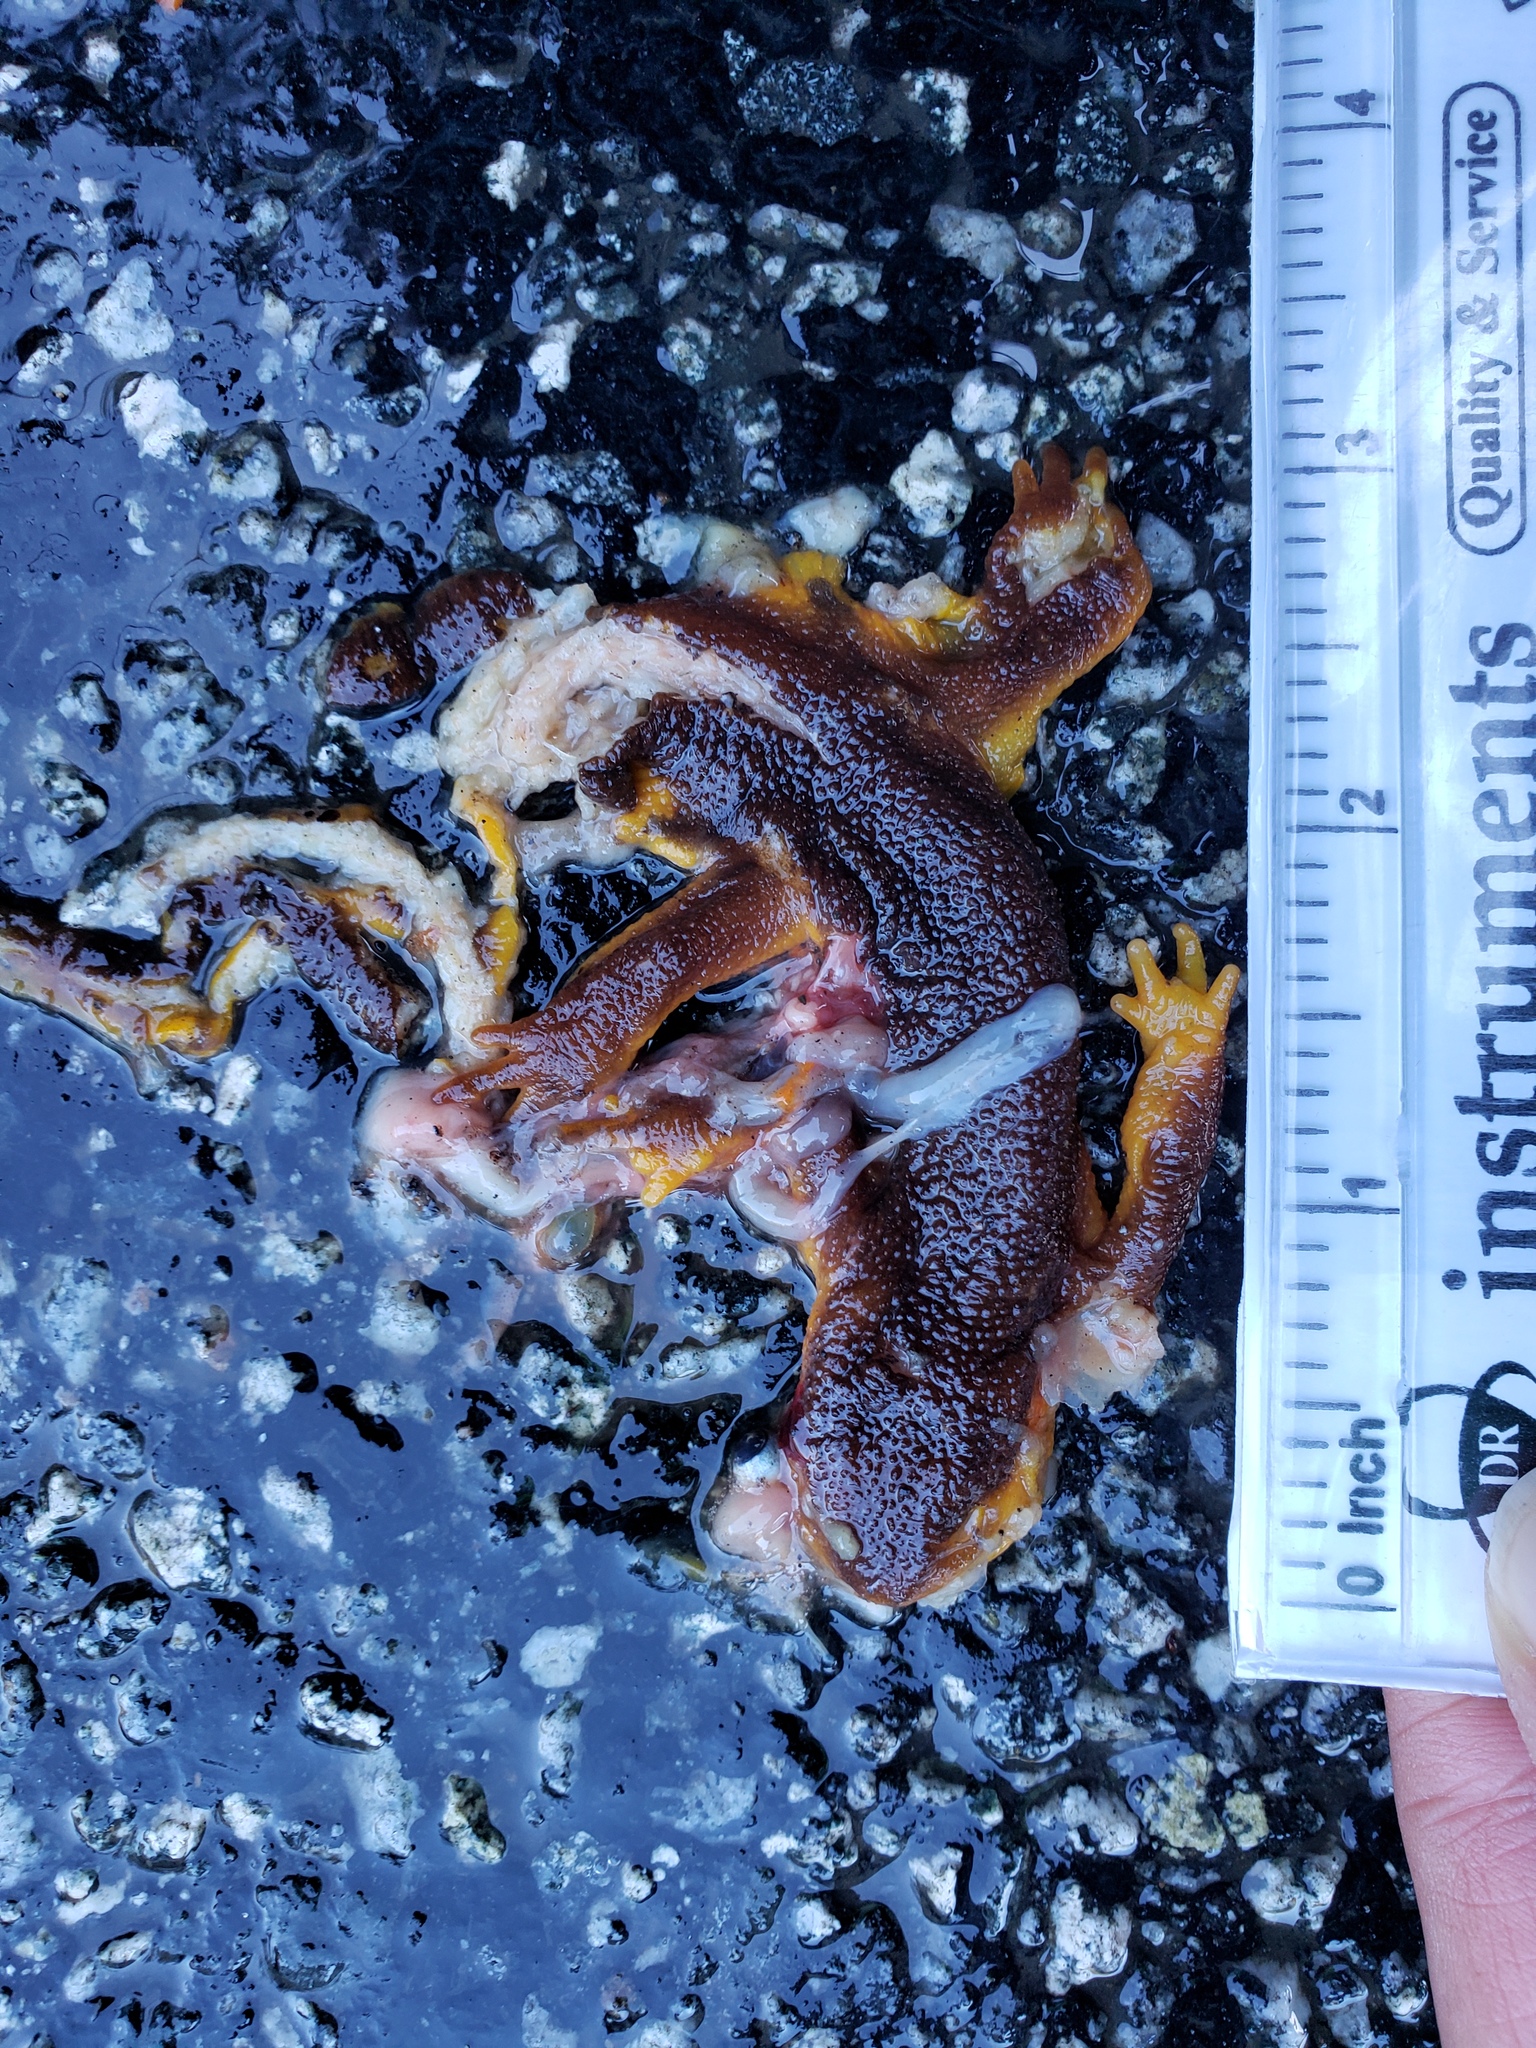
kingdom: Animalia
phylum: Chordata
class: Amphibia
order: Caudata
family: Salamandridae
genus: Taricha
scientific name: Taricha
